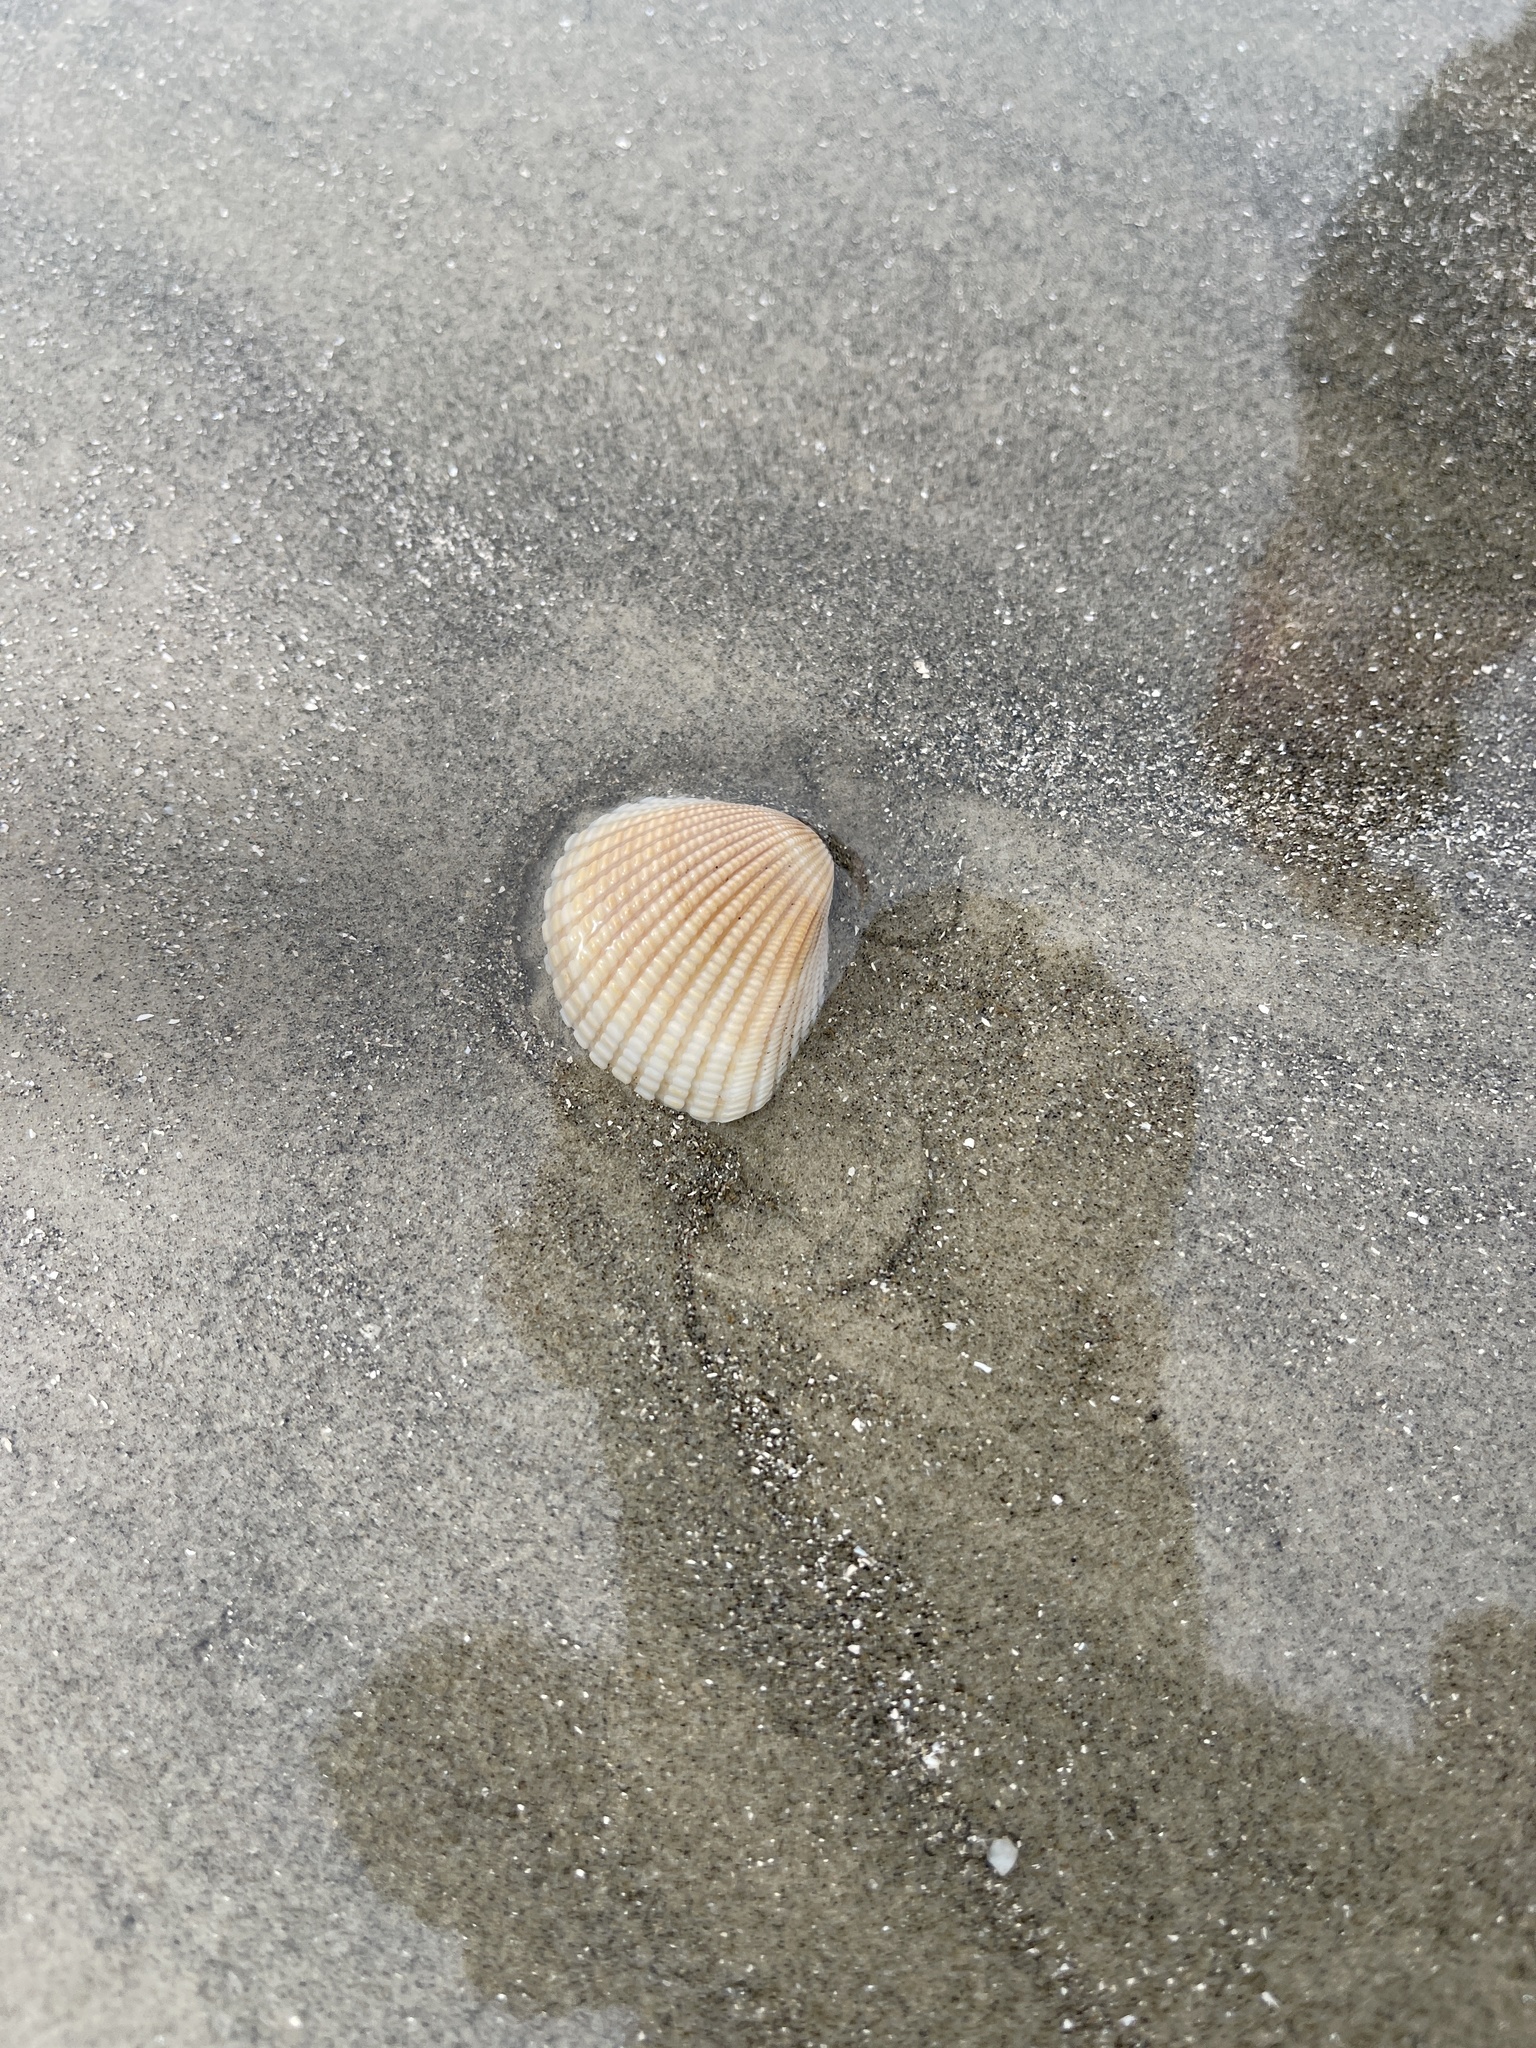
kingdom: Animalia
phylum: Mollusca
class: Bivalvia
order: Arcida
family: Arcidae
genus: Anadara
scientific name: Anadara brasiliana
